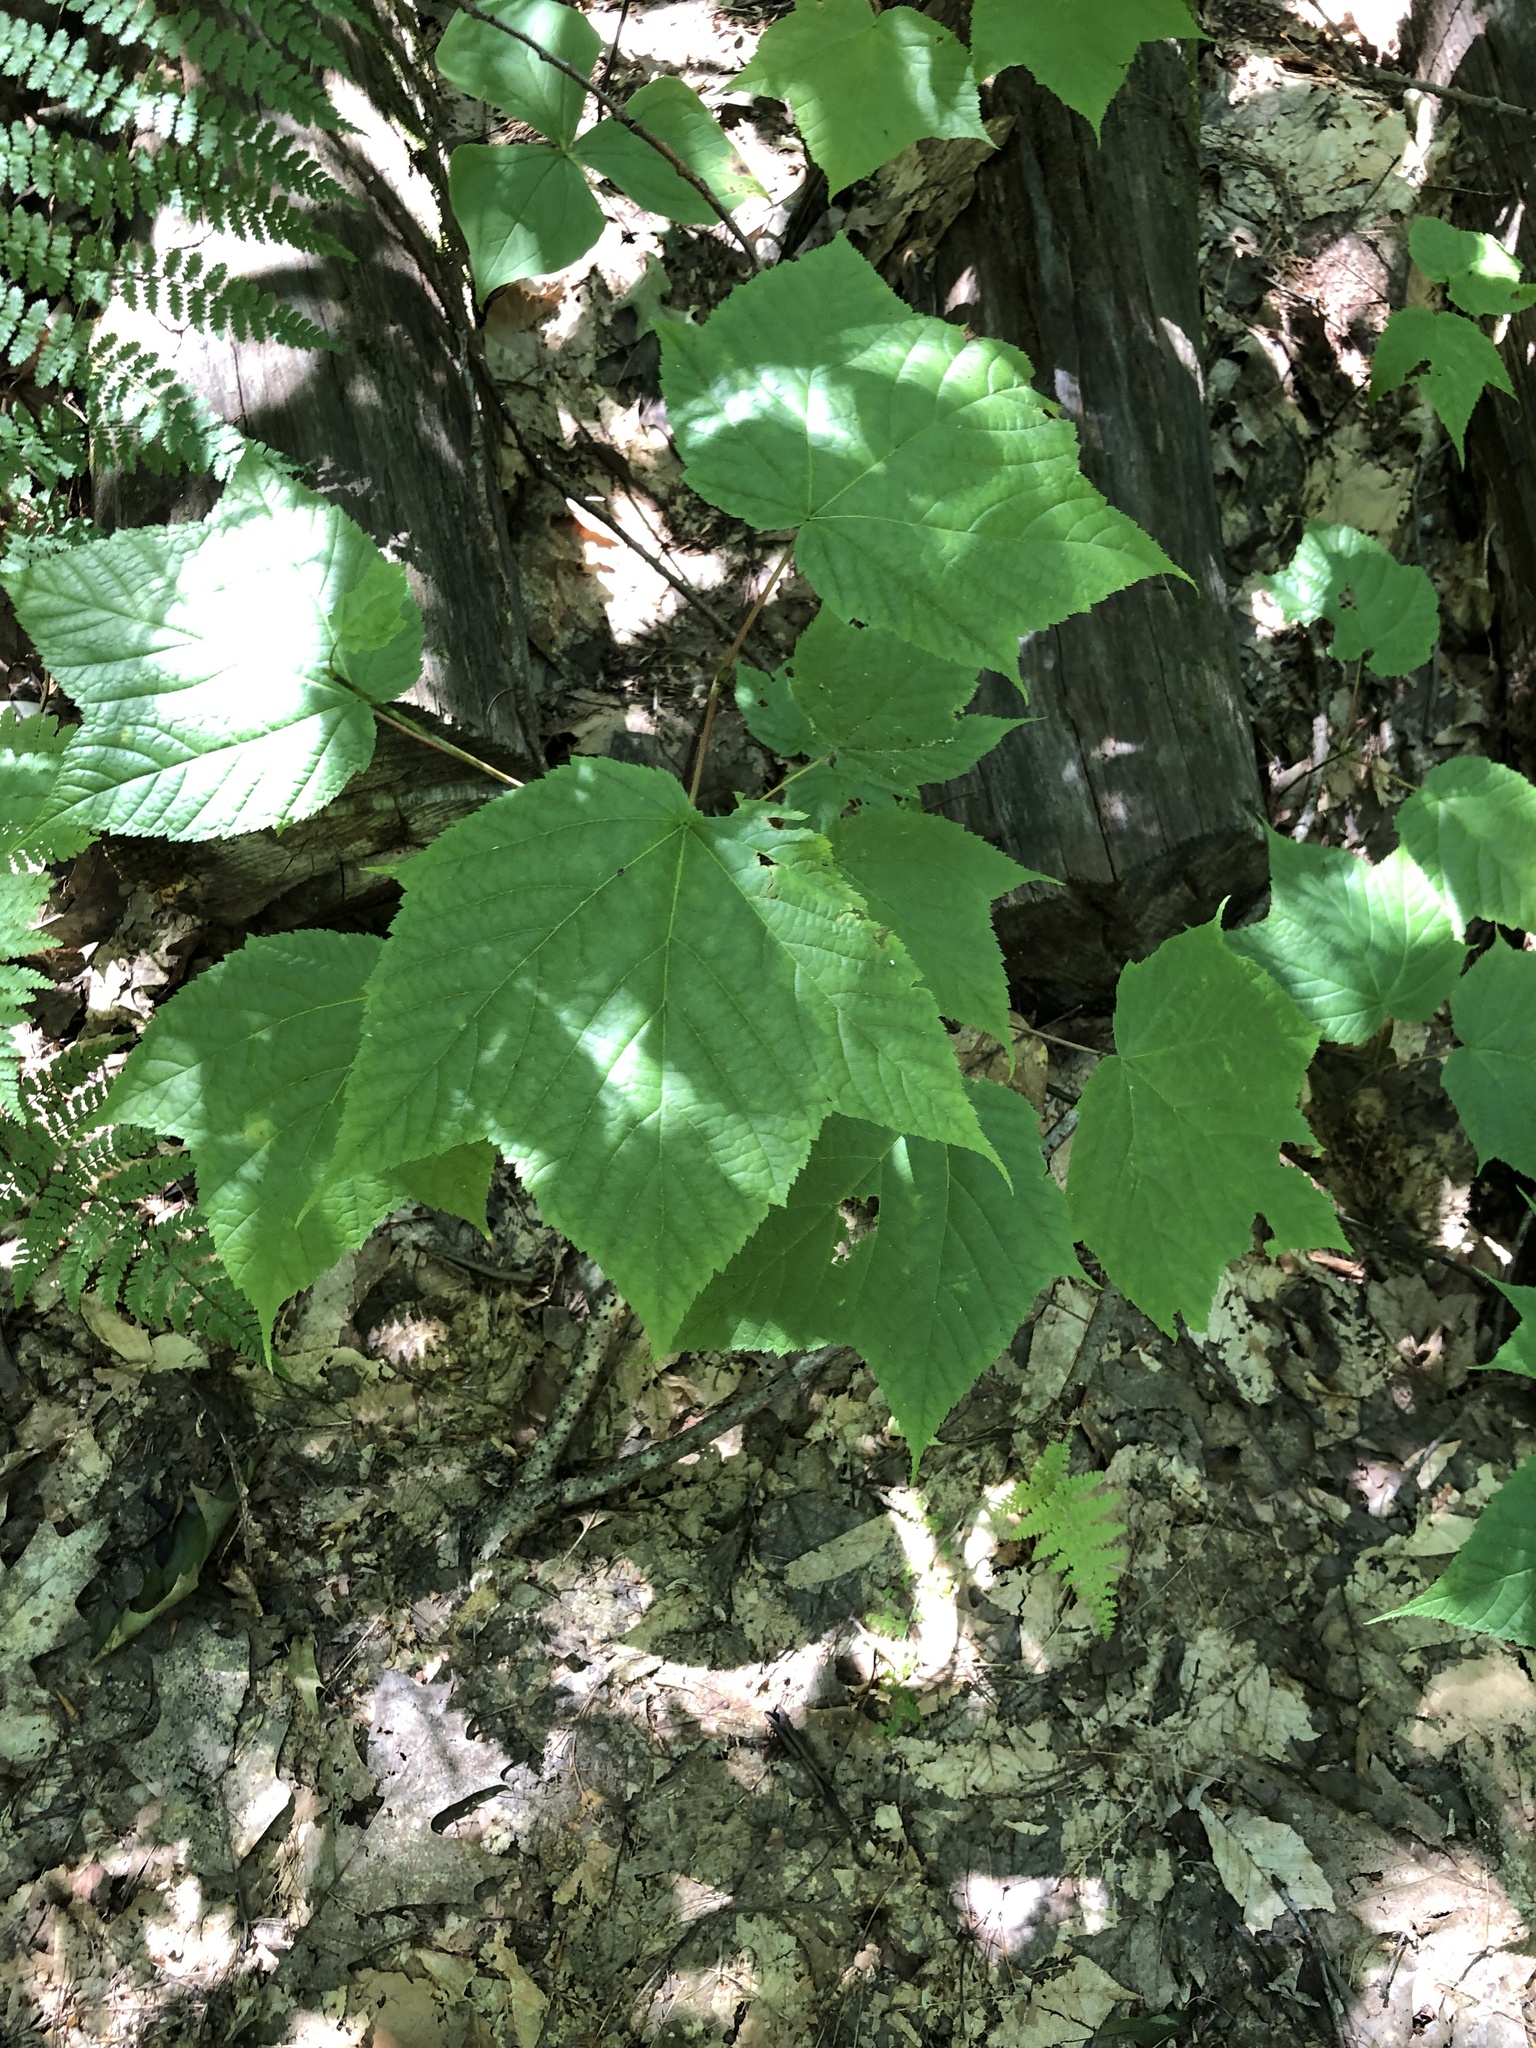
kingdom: Plantae
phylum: Tracheophyta
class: Magnoliopsida
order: Sapindales
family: Sapindaceae
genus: Acer
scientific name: Acer pensylvanicum
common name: Moosewood
